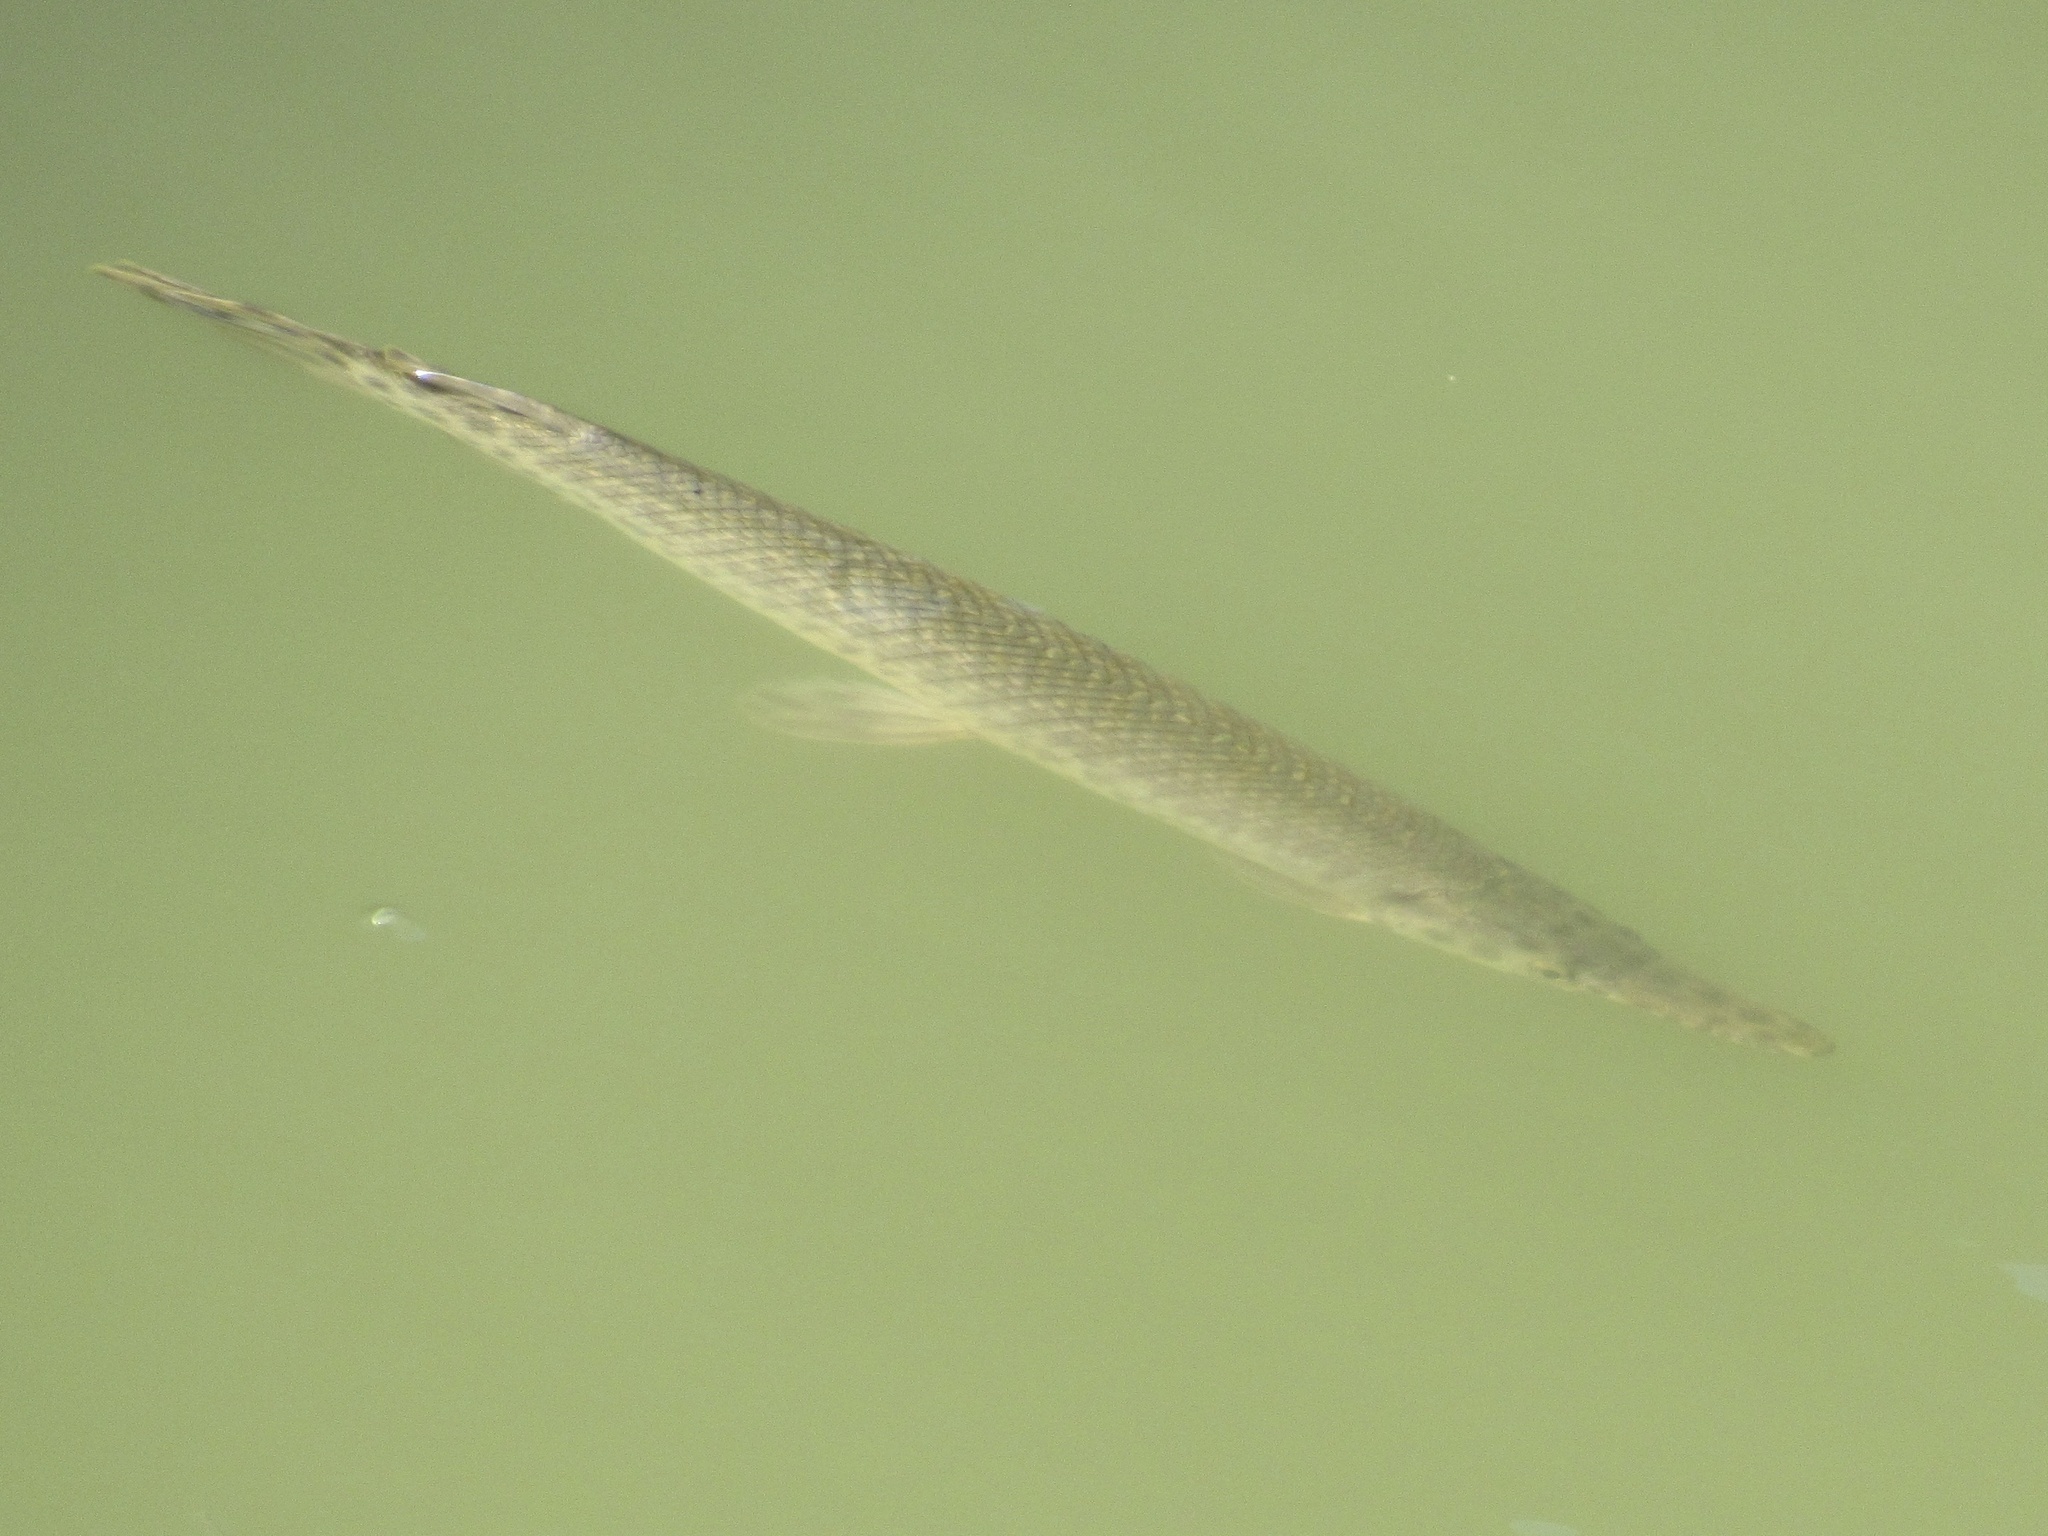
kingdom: Animalia
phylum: Chordata
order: Lepisosteiformes
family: Lepisosteidae
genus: Lepisosteus
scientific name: Lepisosteus oculatus
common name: Spotted gar
